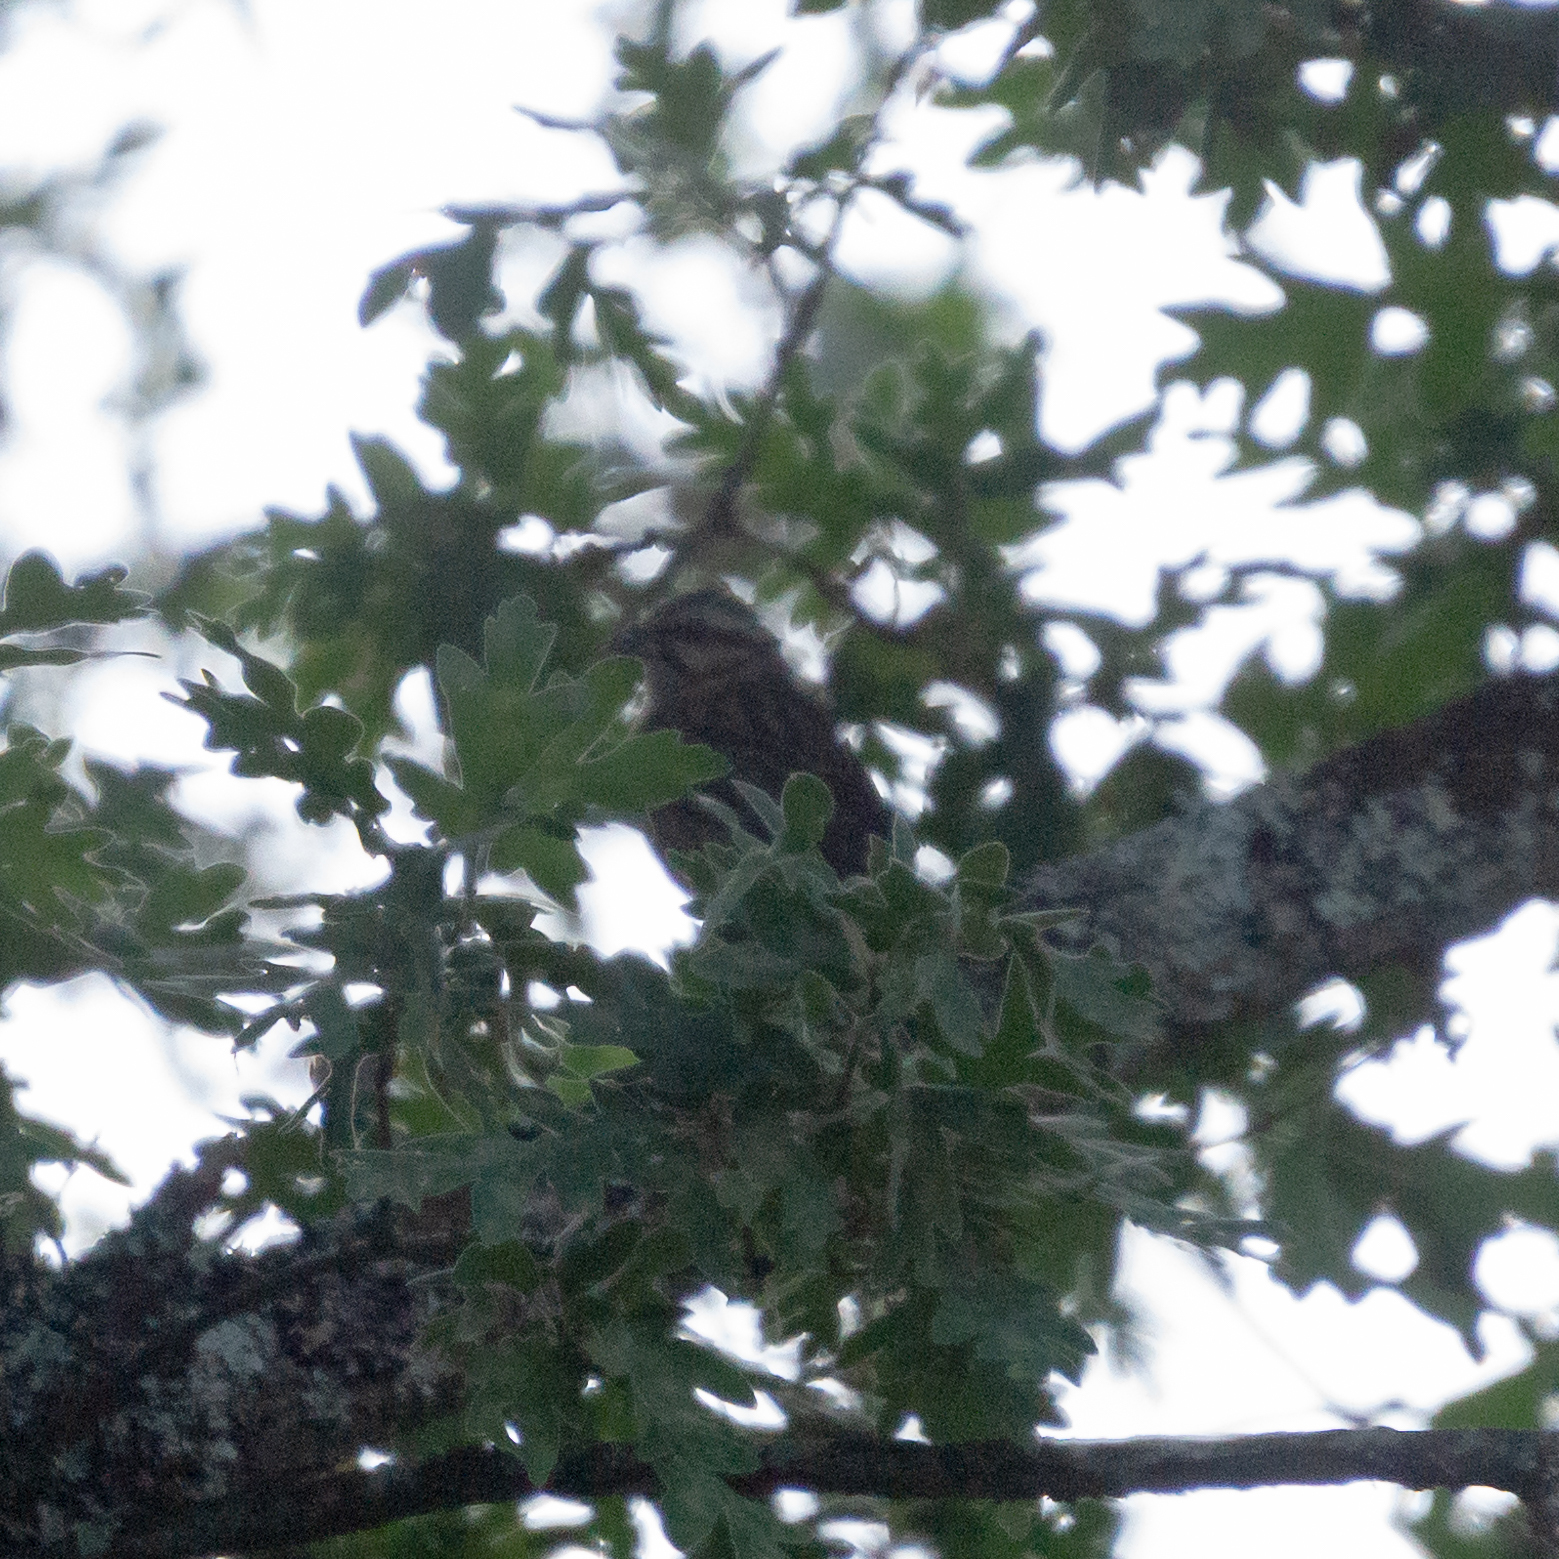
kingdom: Animalia
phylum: Chordata
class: Aves
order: Passeriformes
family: Emberizidae
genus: Emberiza
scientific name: Emberiza cia
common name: Rock bunting
